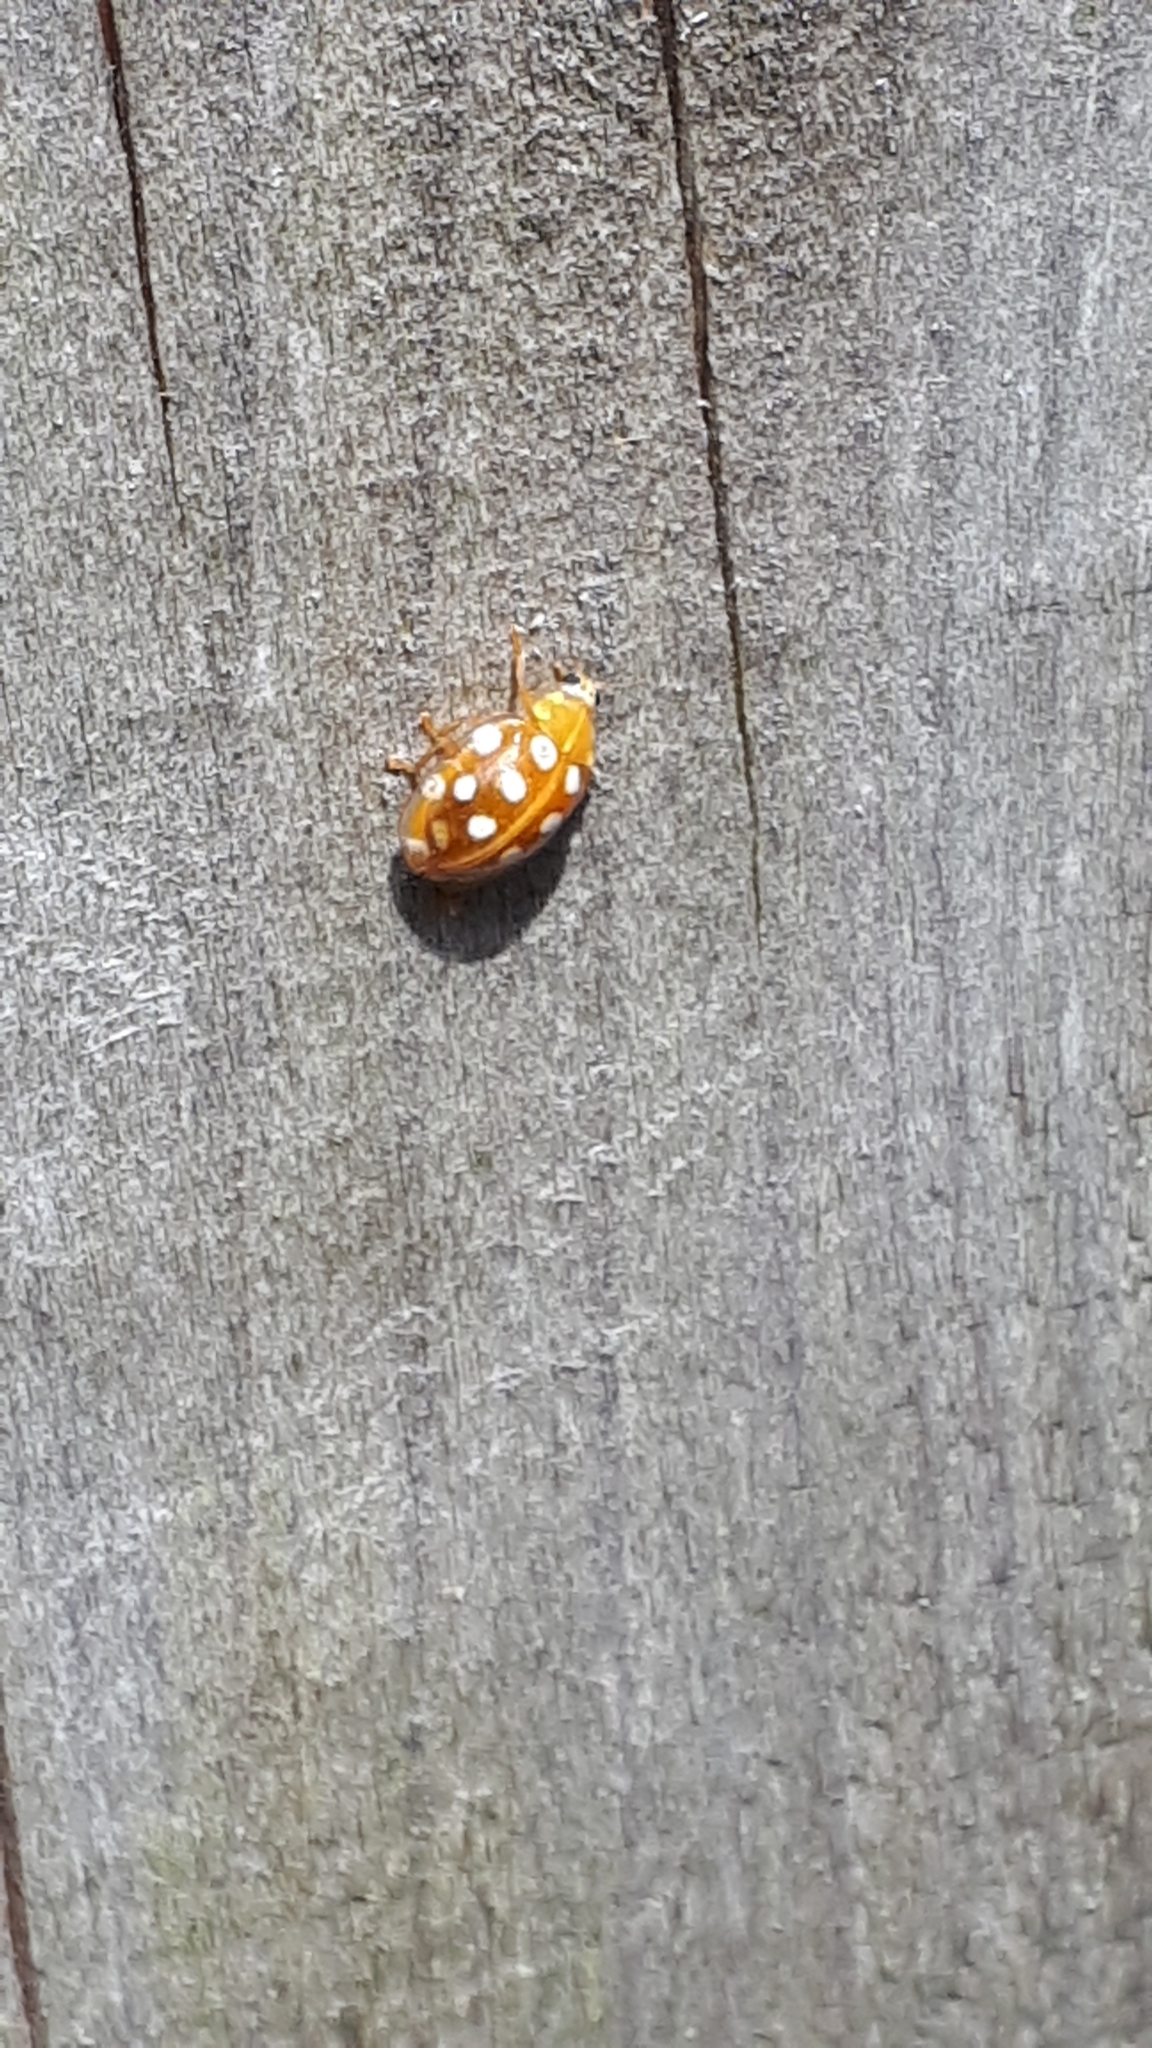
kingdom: Animalia
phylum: Arthropoda
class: Insecta
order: Coleoptera
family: Coccinellidae
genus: Halyzia
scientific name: Halyzia sedecimguttata
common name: Orange ladybird
